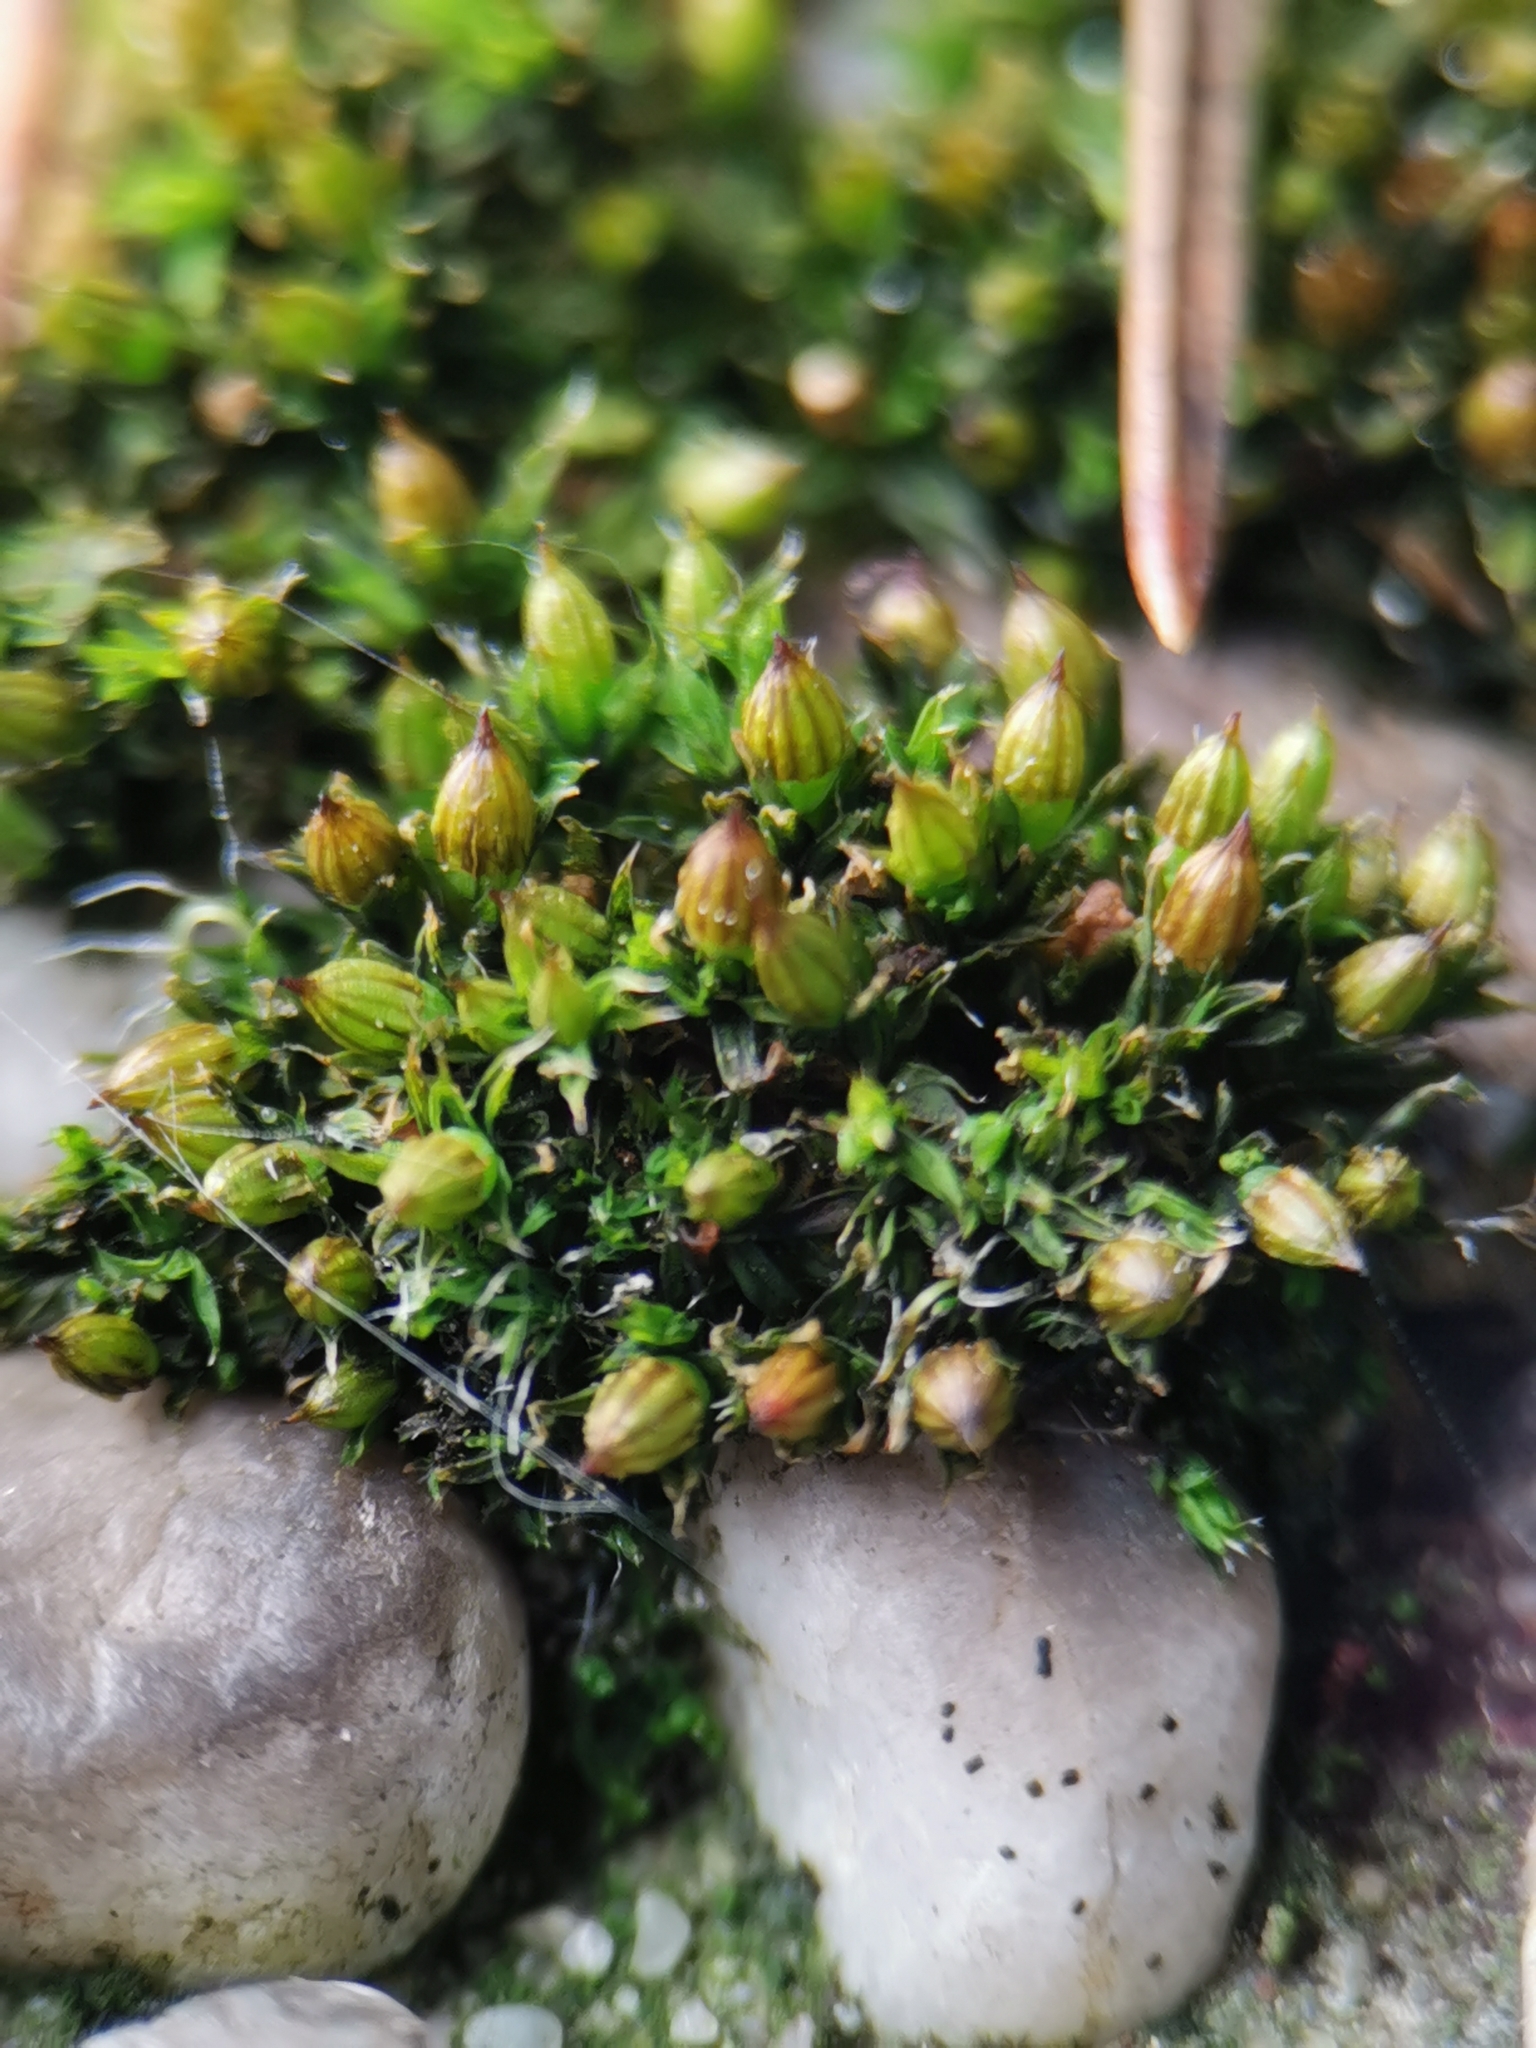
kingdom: Plantae
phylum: Bryophyta
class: Bryopsida
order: Orthotrichales
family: Orthotrichaceae
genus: Orthotrichum
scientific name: Orthotrichum diaphanum
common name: White-tipped bristle-moss
